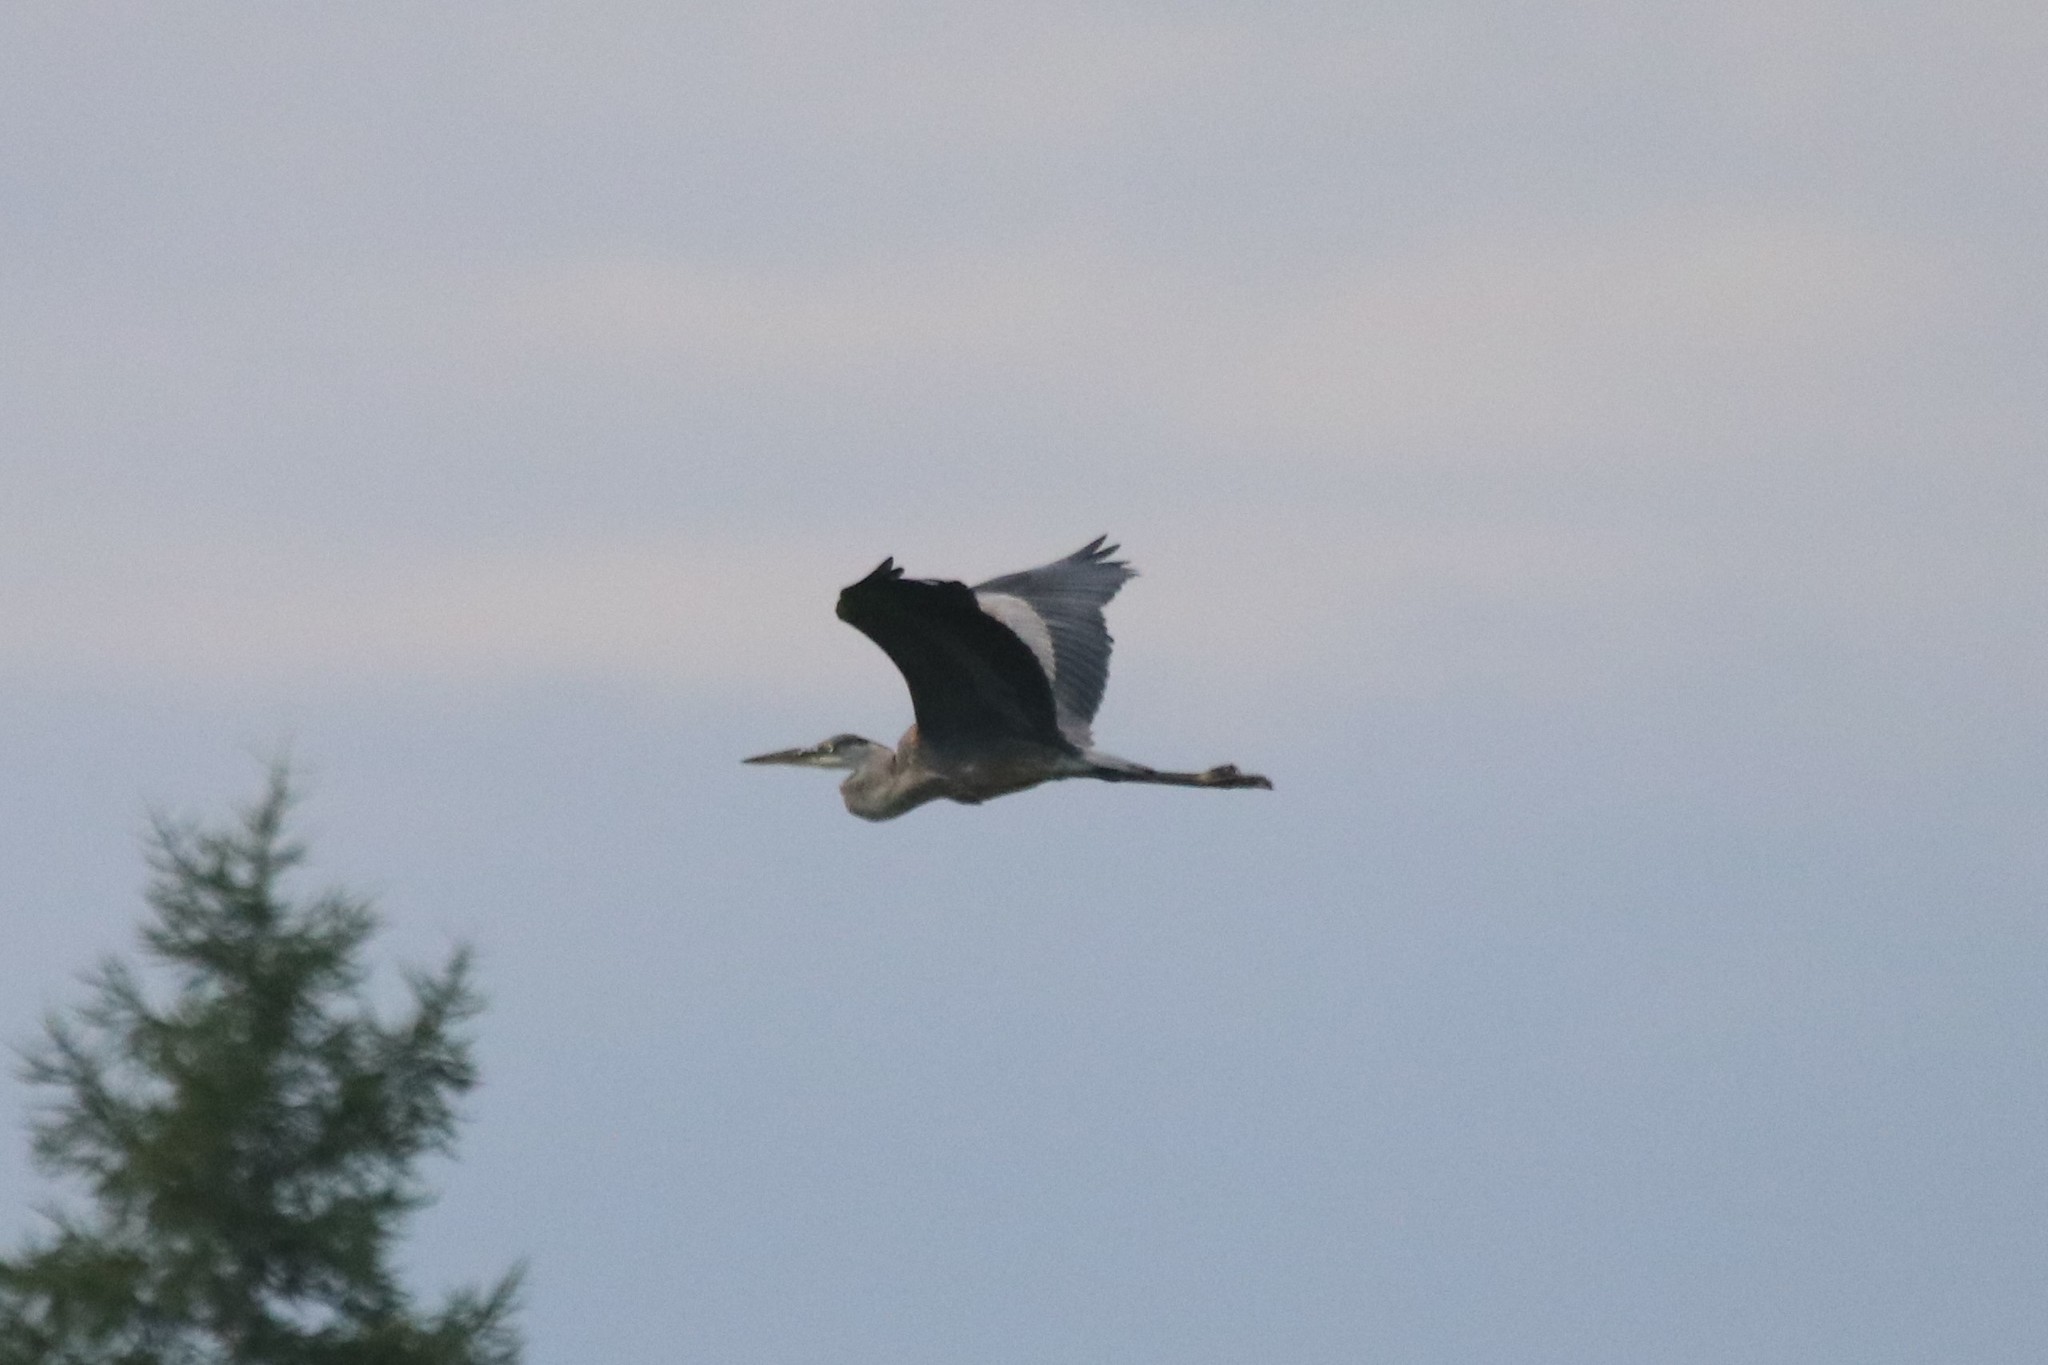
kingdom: Animalia
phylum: Chordata
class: Aves
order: Pelecaniformes
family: Ardeidae
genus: Ardea
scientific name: Ardea herodias
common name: Great blue heron
